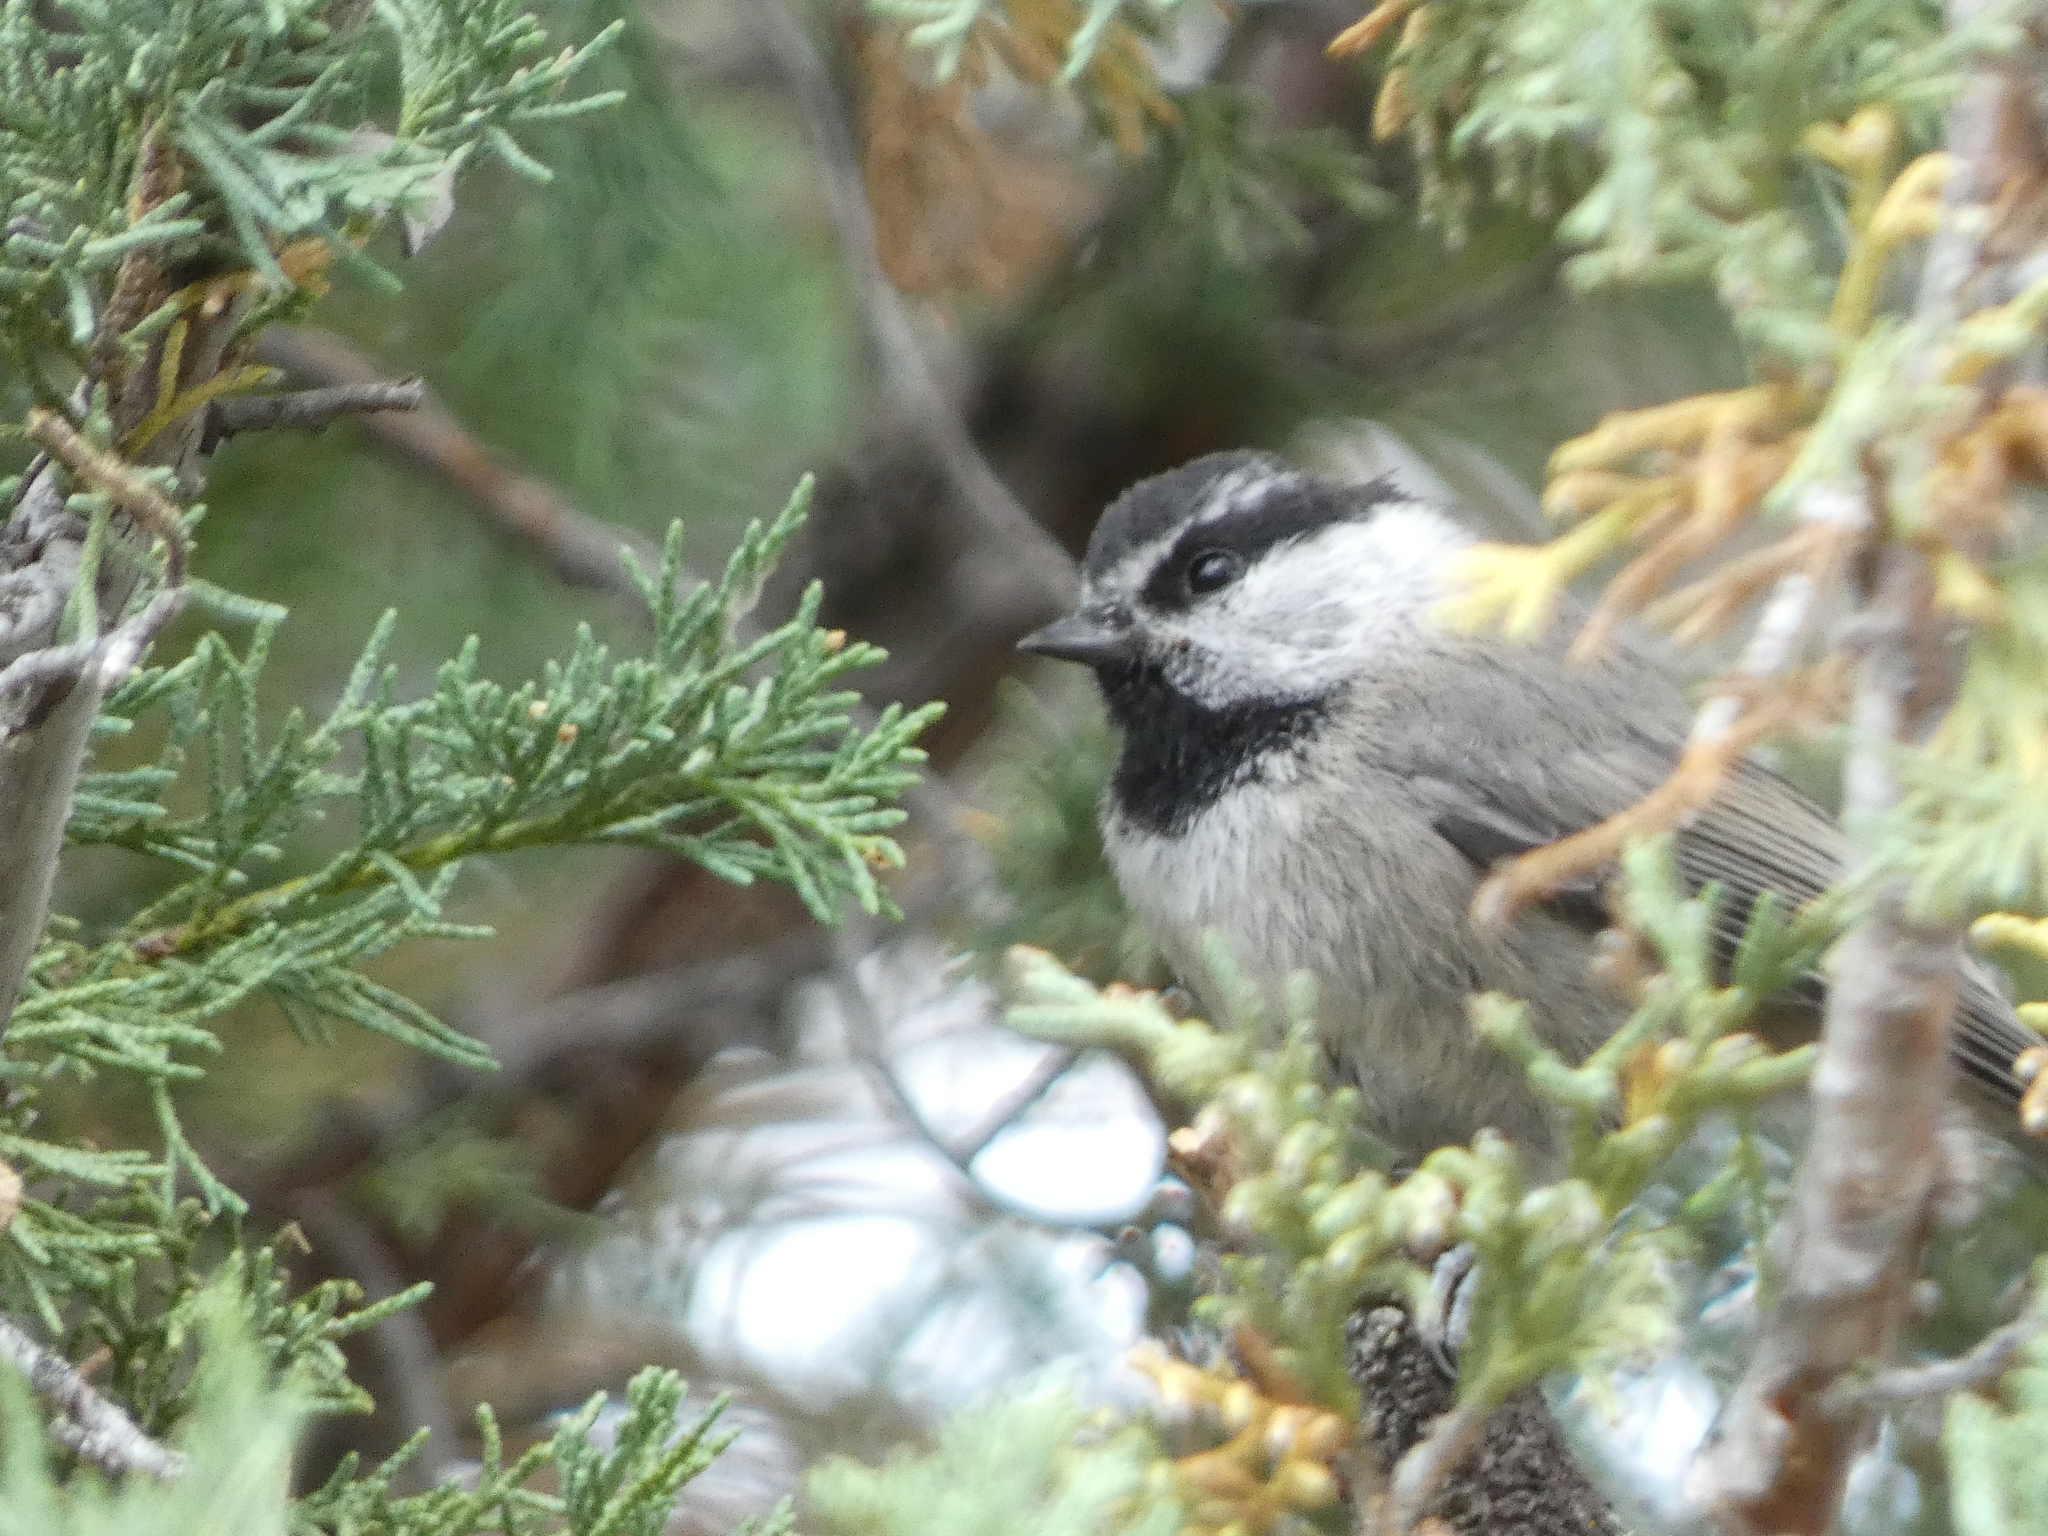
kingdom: Animalia
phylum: Chordata
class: Aves
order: Passeriformes
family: Paridae
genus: Poecile
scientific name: Poecile gambeli
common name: Mountain chickadee
